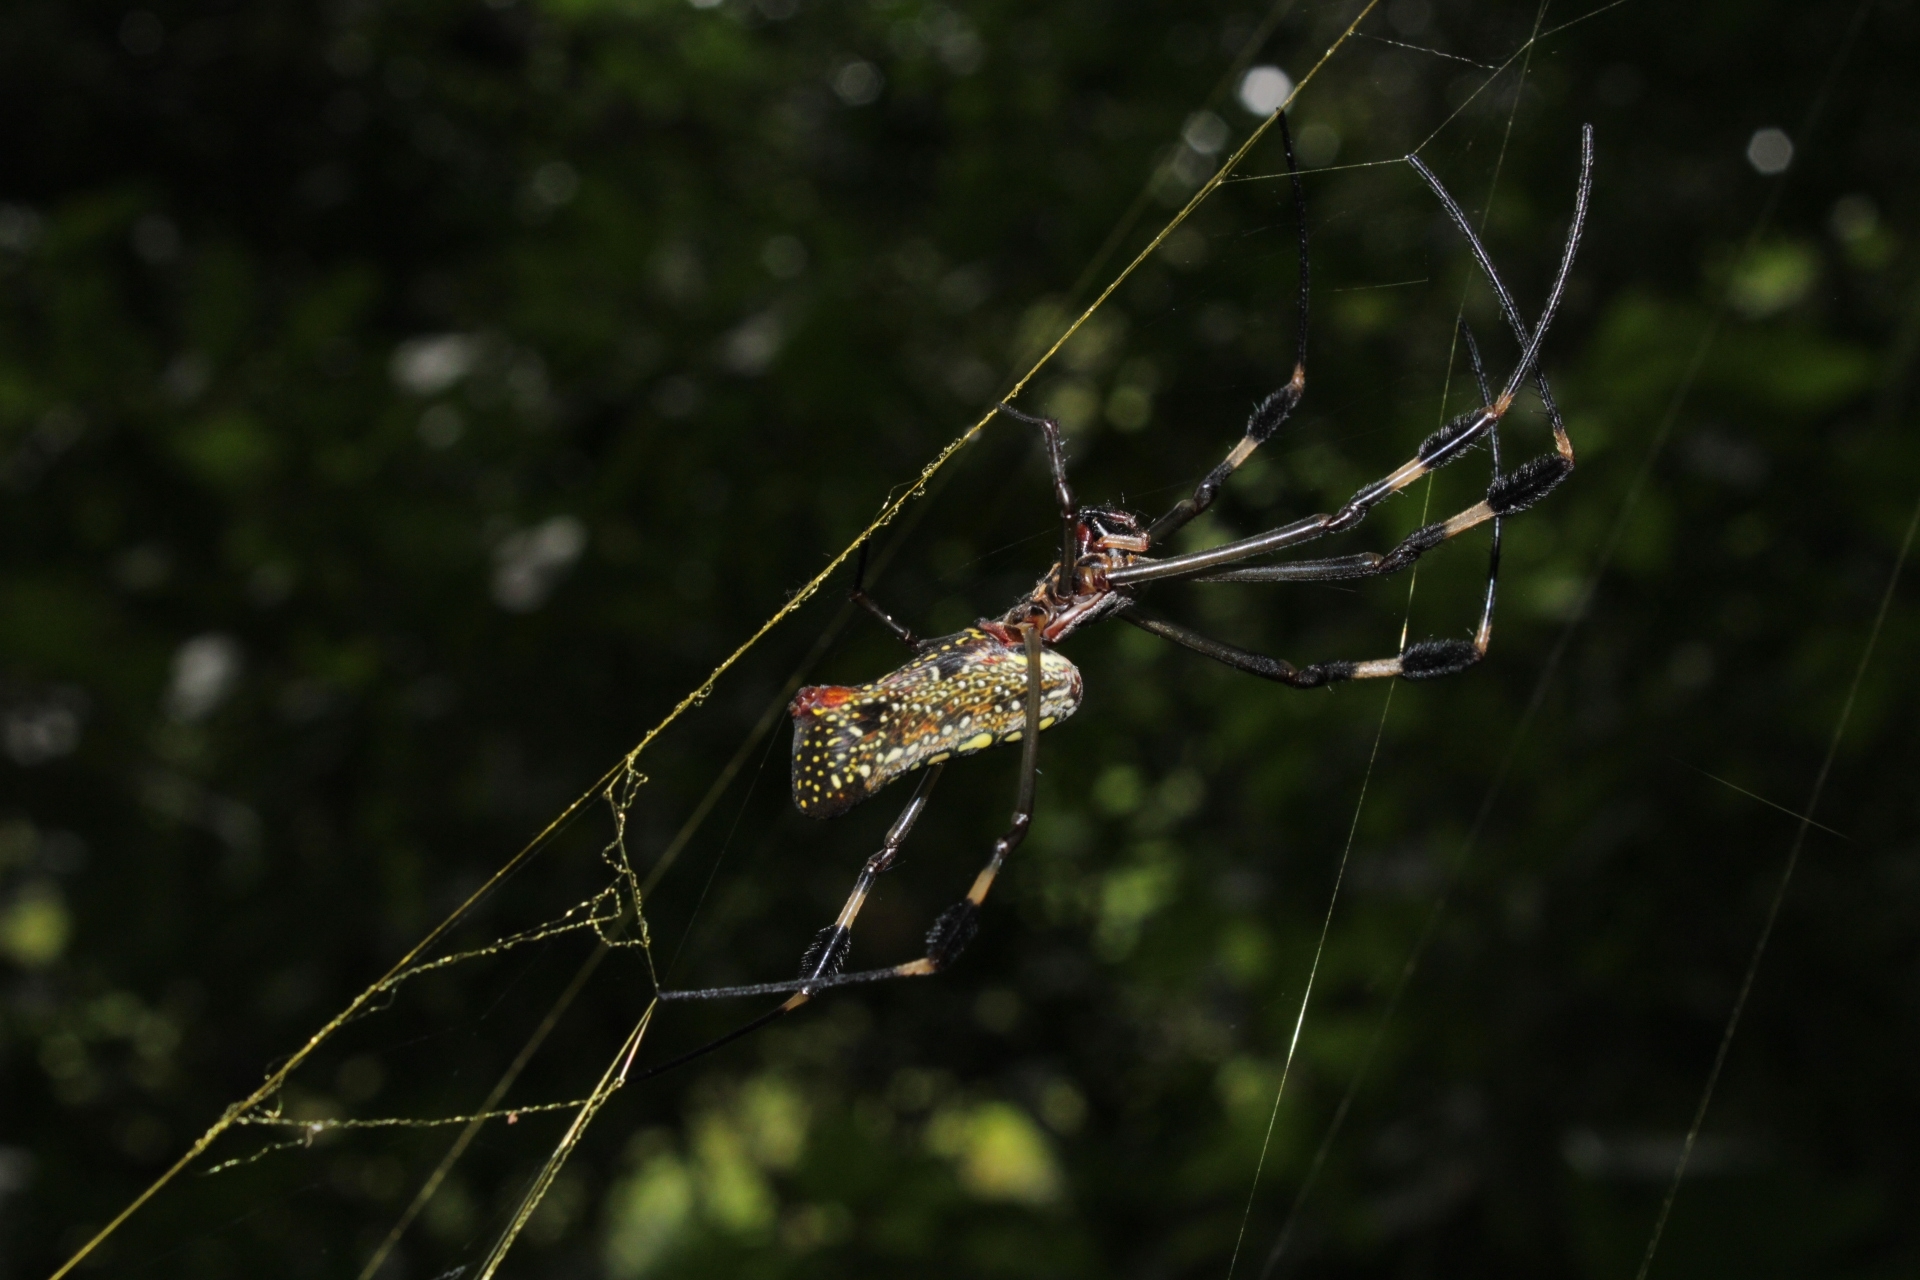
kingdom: Animalia
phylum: Arthropoda
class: Arachnida
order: Araneae
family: Araneidae
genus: Trichonephila
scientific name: Trichonephila clavipes
